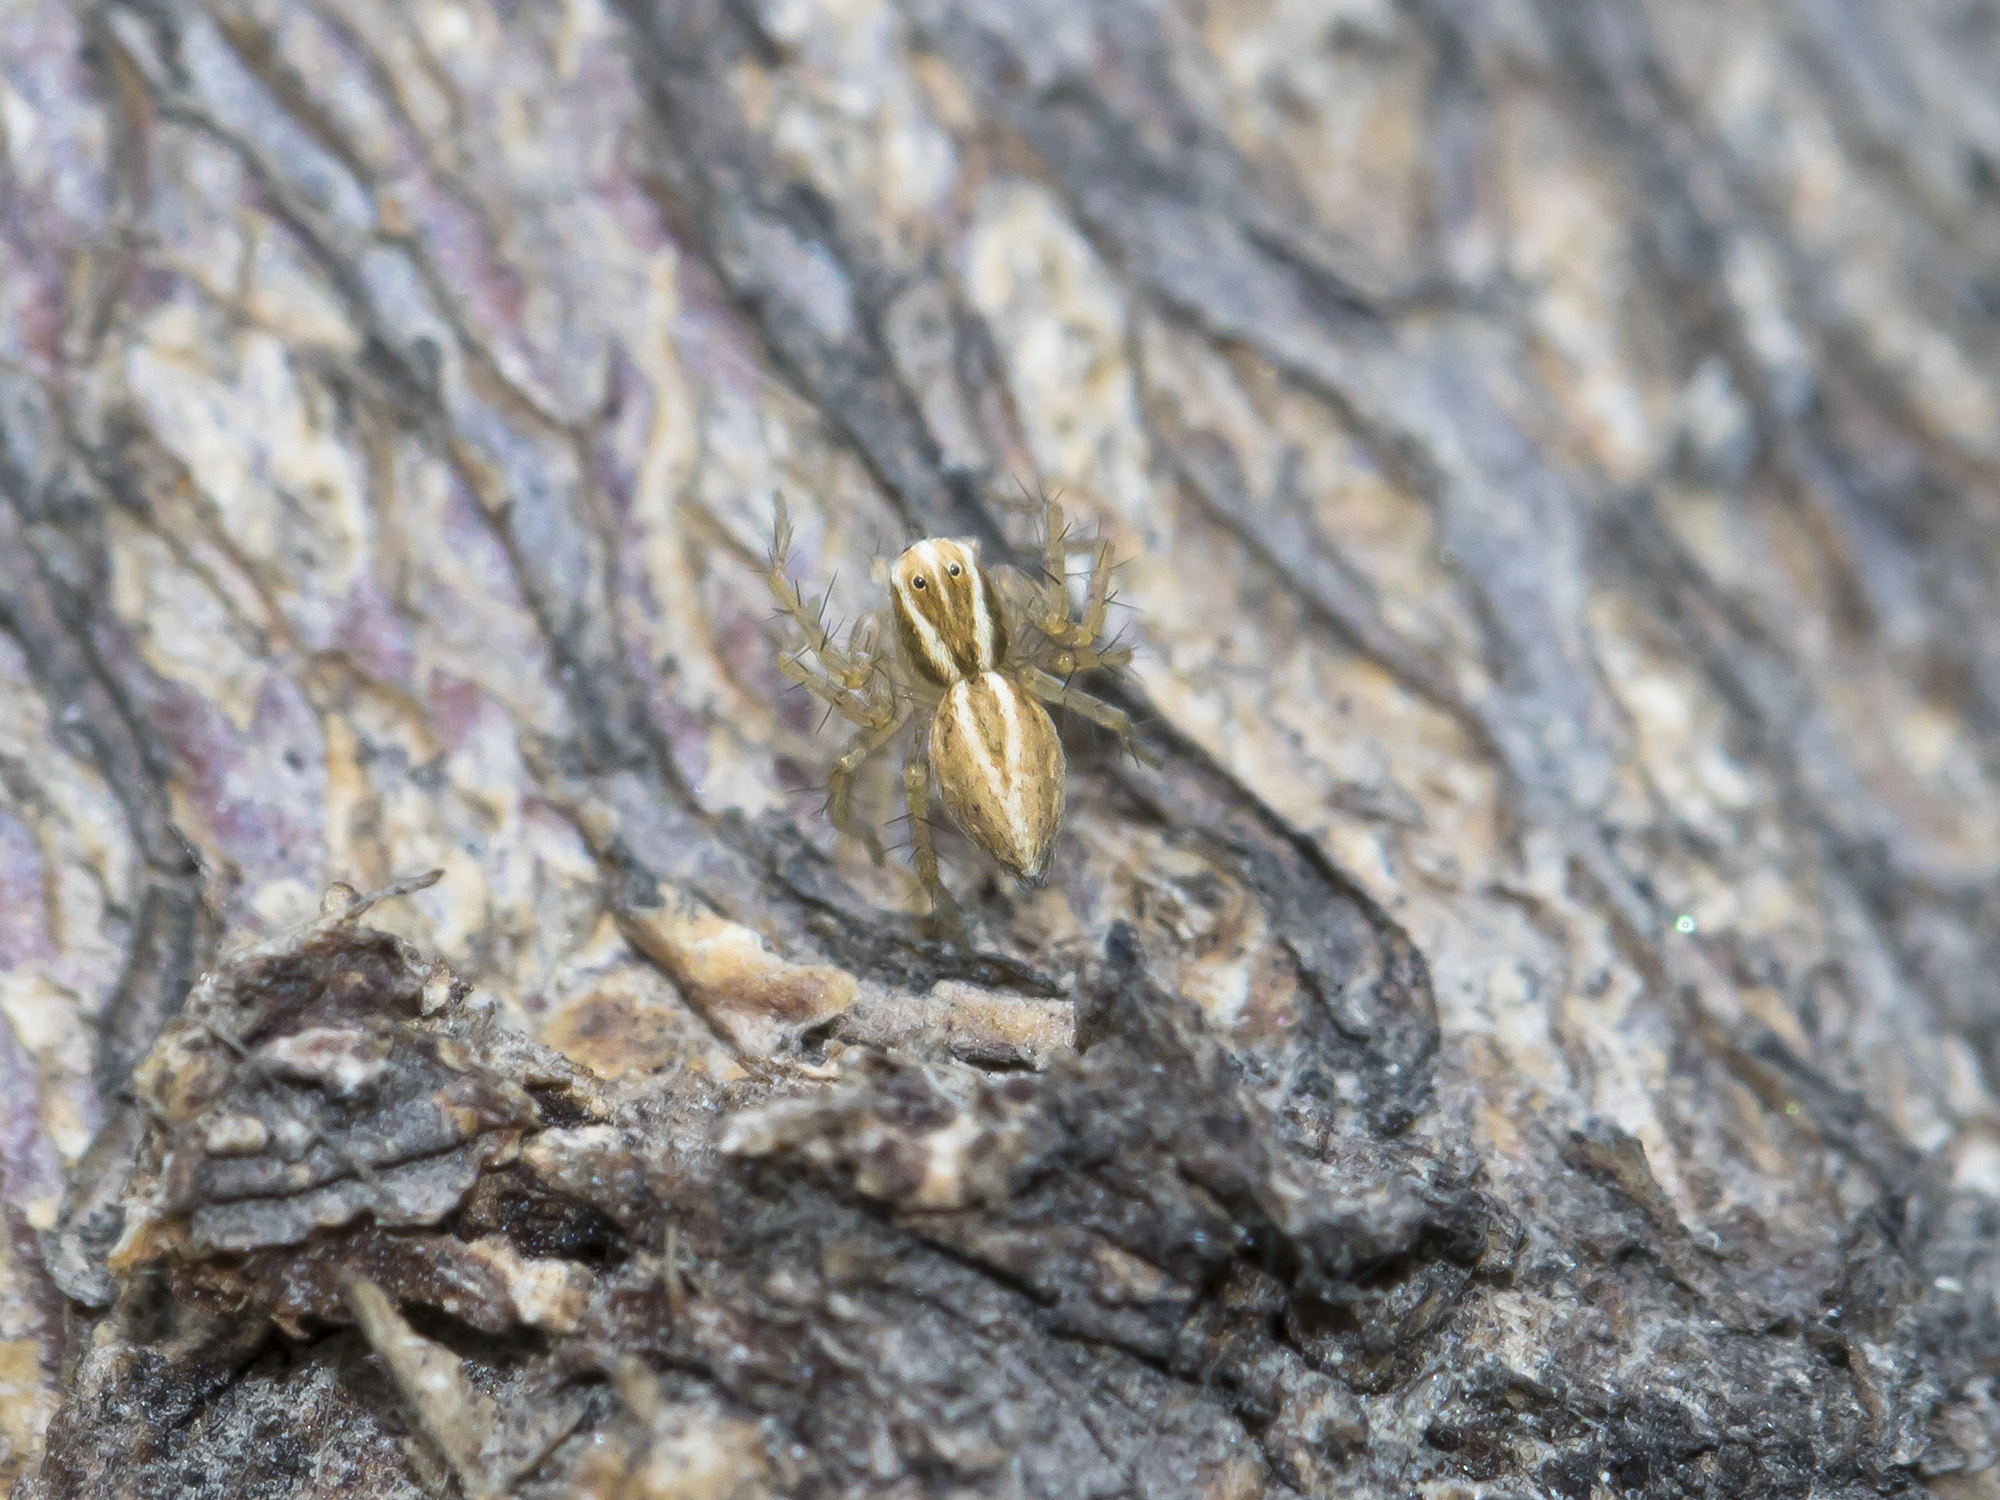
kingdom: Animalia
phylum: Arthropoda
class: Arachnida
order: Araneae
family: Oxyopidae
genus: Oxyopes
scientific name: Oxyopes lineatus
